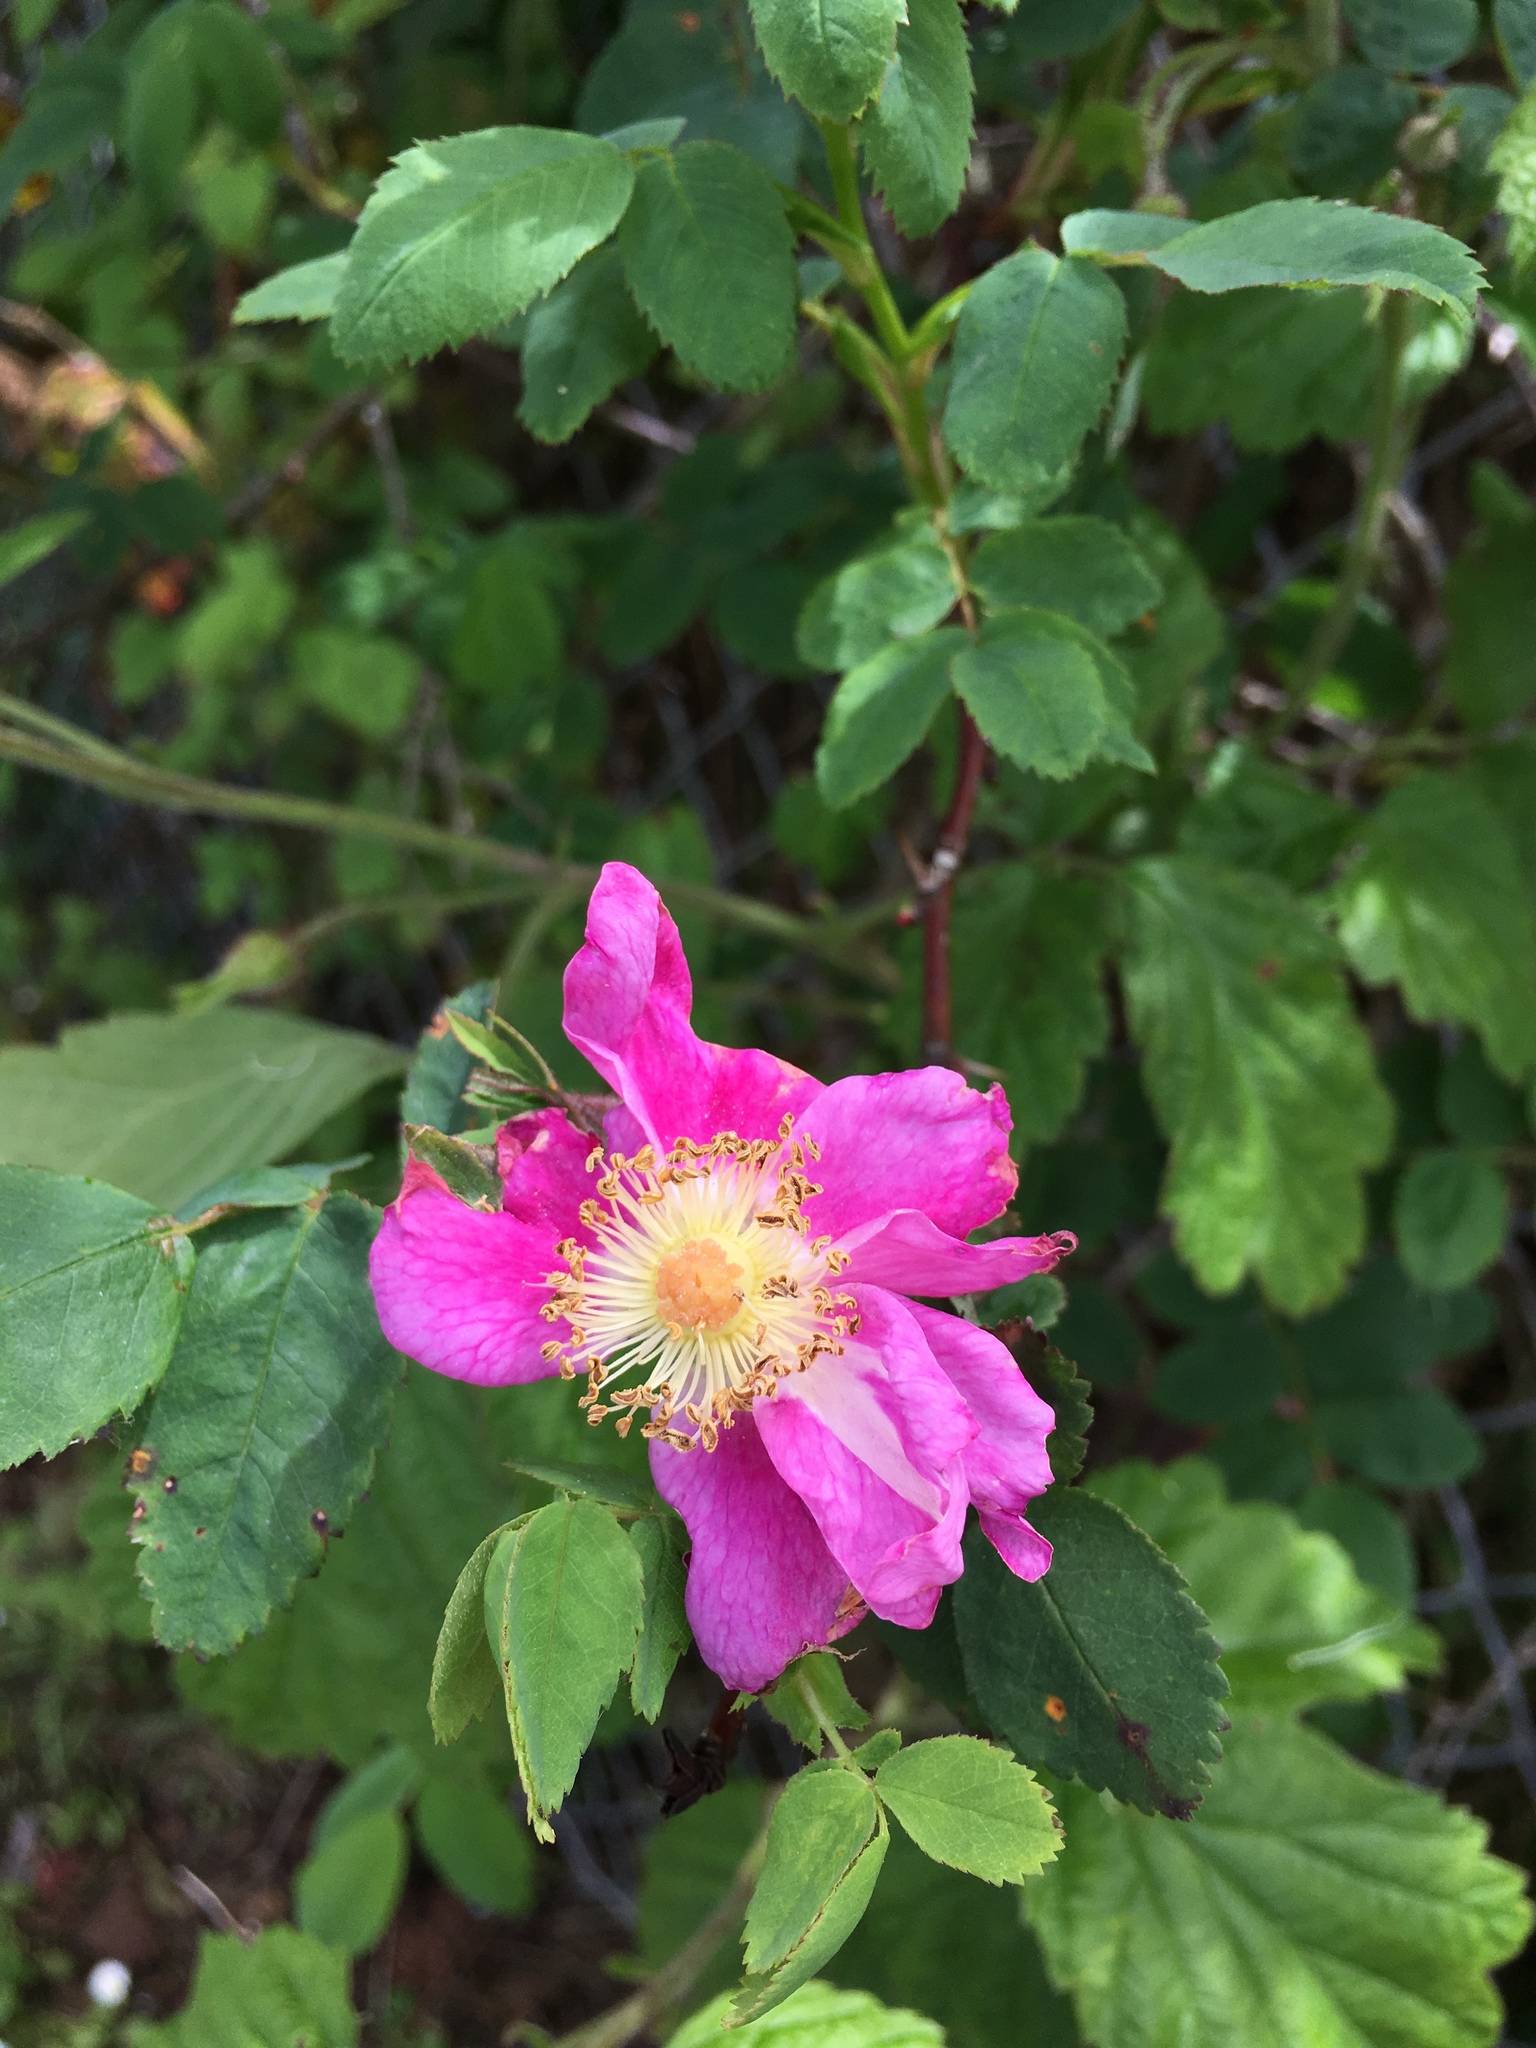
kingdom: Plantae
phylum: Tracheophyta
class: Magnoliopsida
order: Rosales
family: Rosaceae
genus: Rosa
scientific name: Rosa nutkana
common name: Nootka rose
